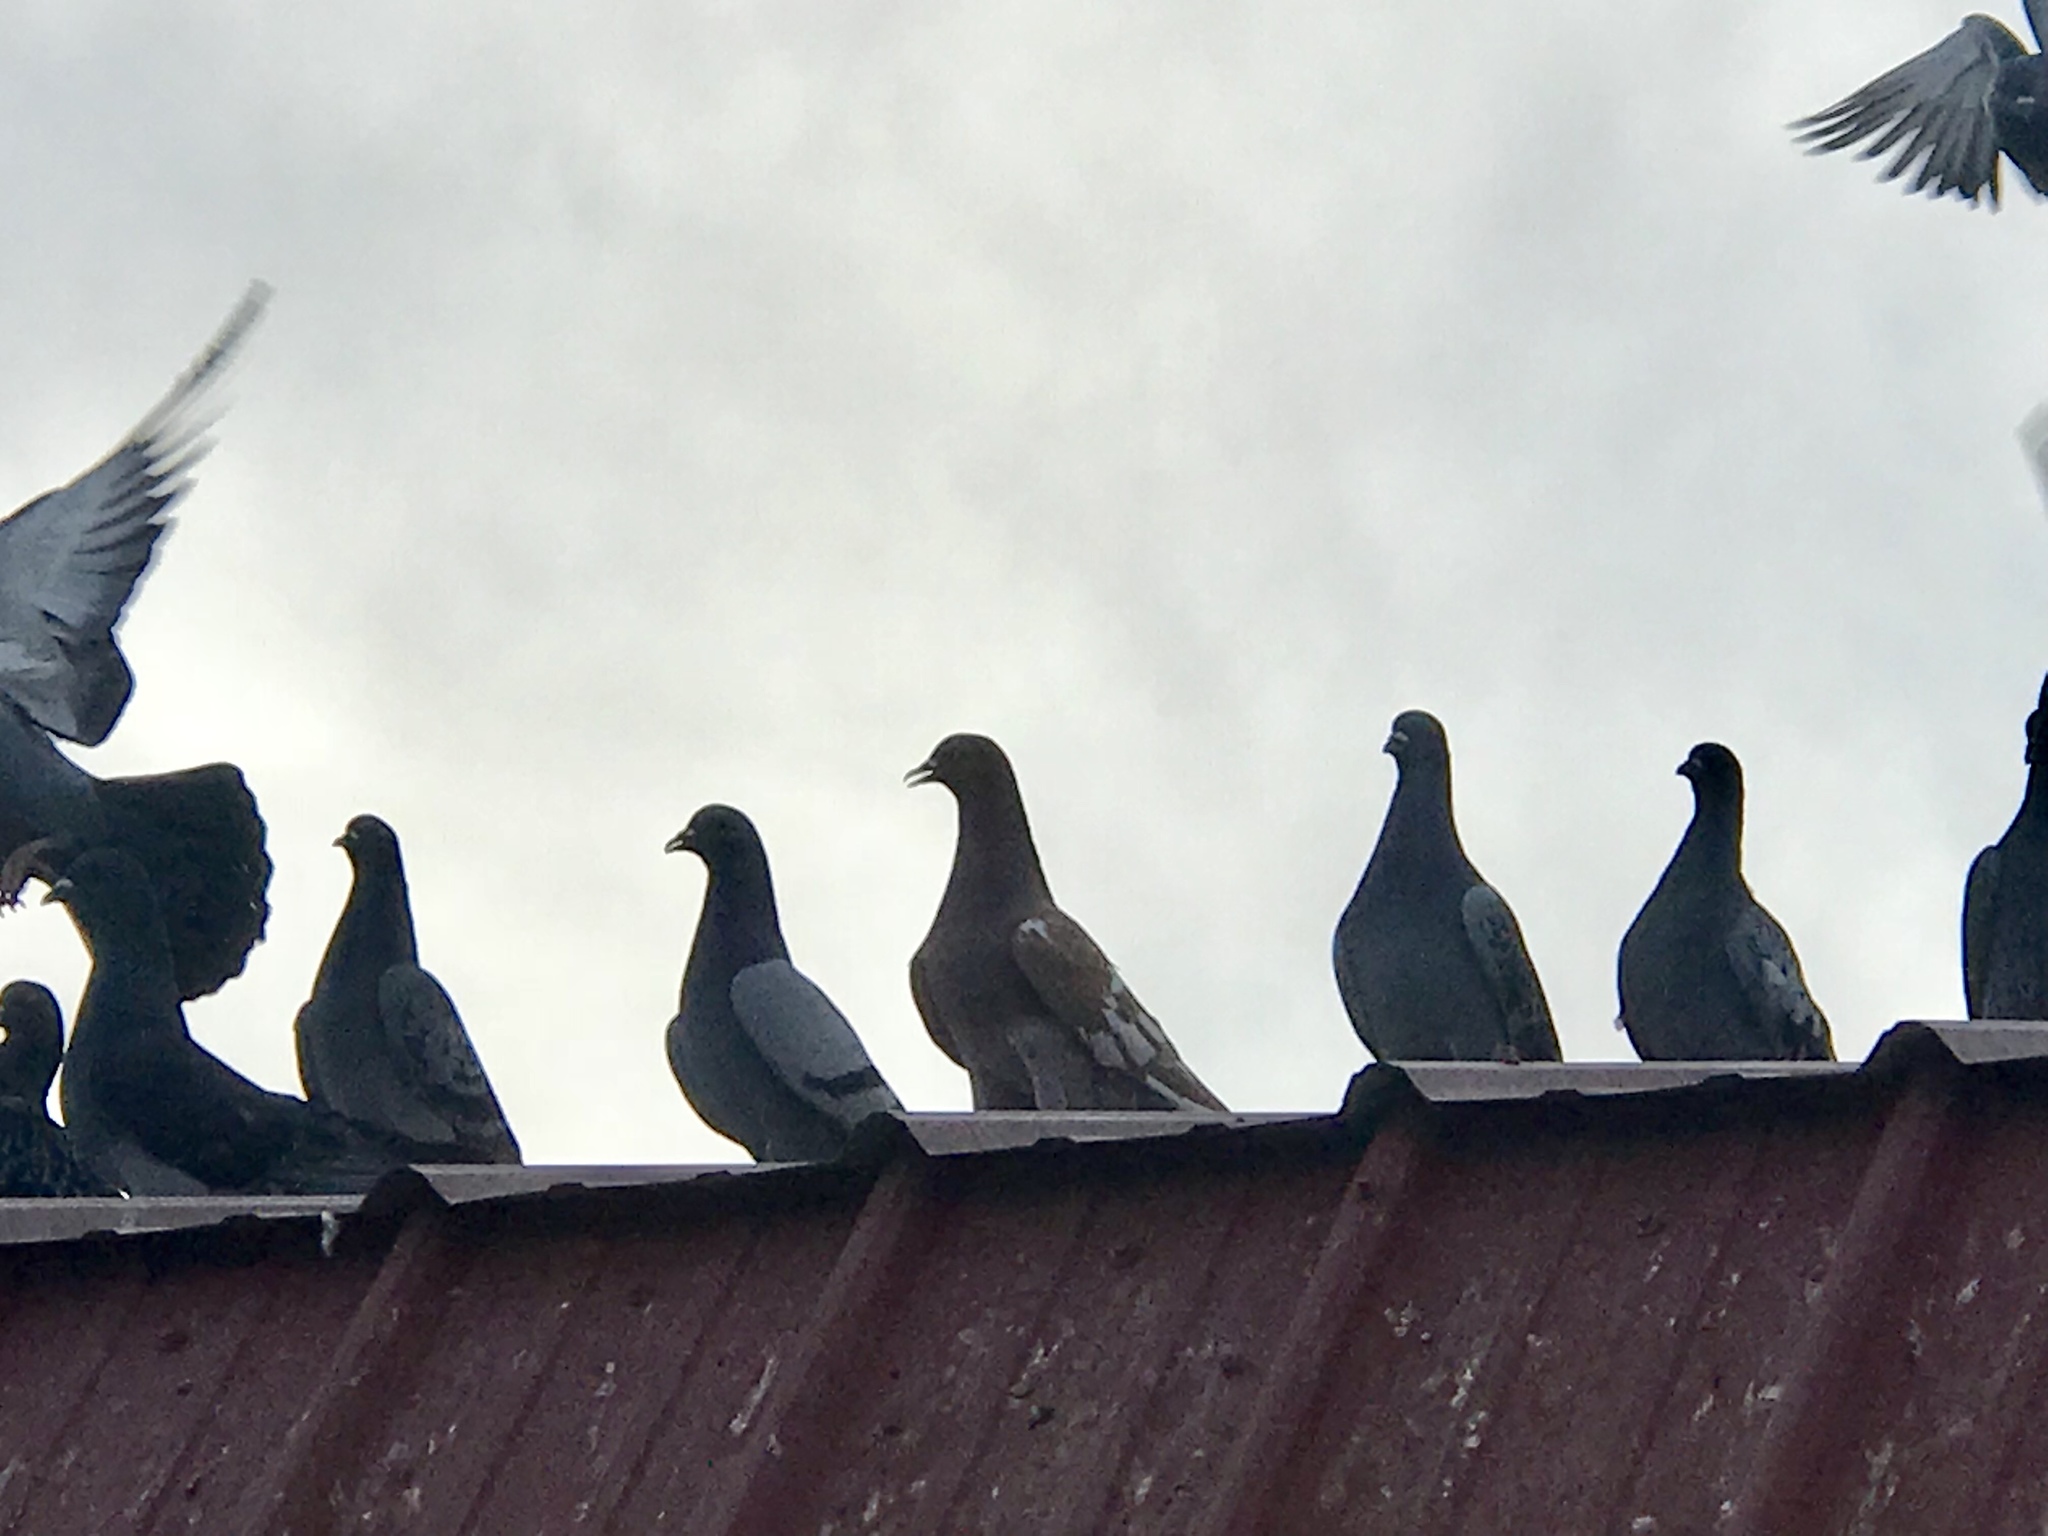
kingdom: Animalia
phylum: Chordata
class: Aves
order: Columbiformes
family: Columbidae
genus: Columba
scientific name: Columba livia
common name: Rock pigeon
